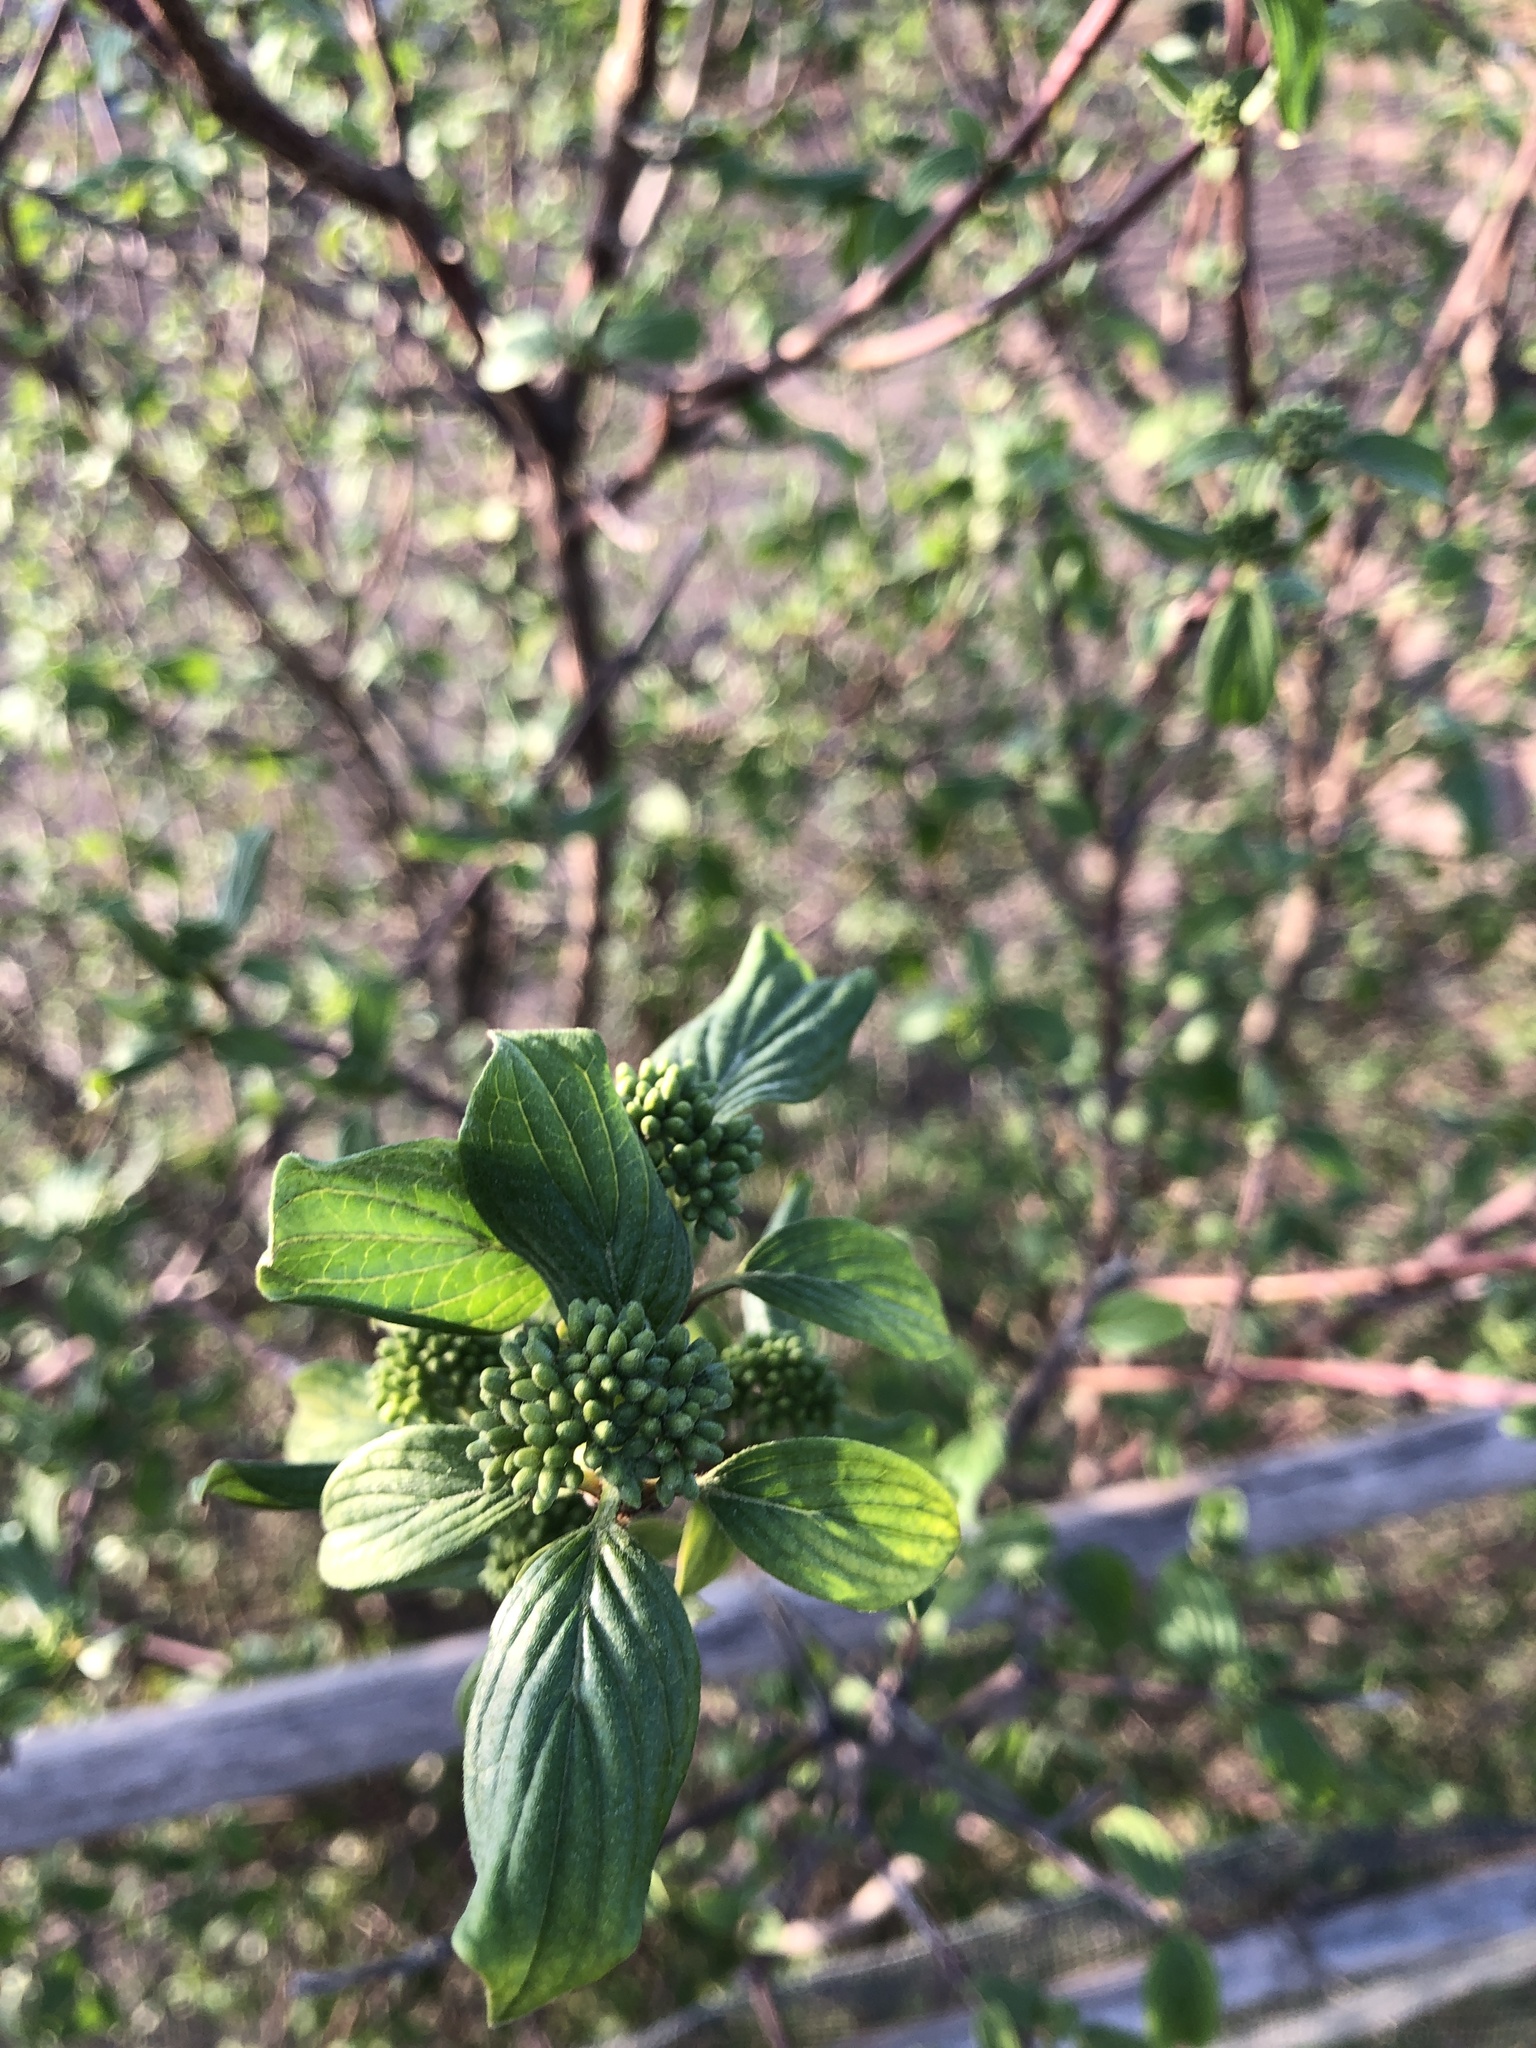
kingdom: Plantae
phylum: Tracheophyta
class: Magnoliopsida
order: Cornales
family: Cornaceae
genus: Cornus
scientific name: Cornus sanguinea
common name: Dogwood
